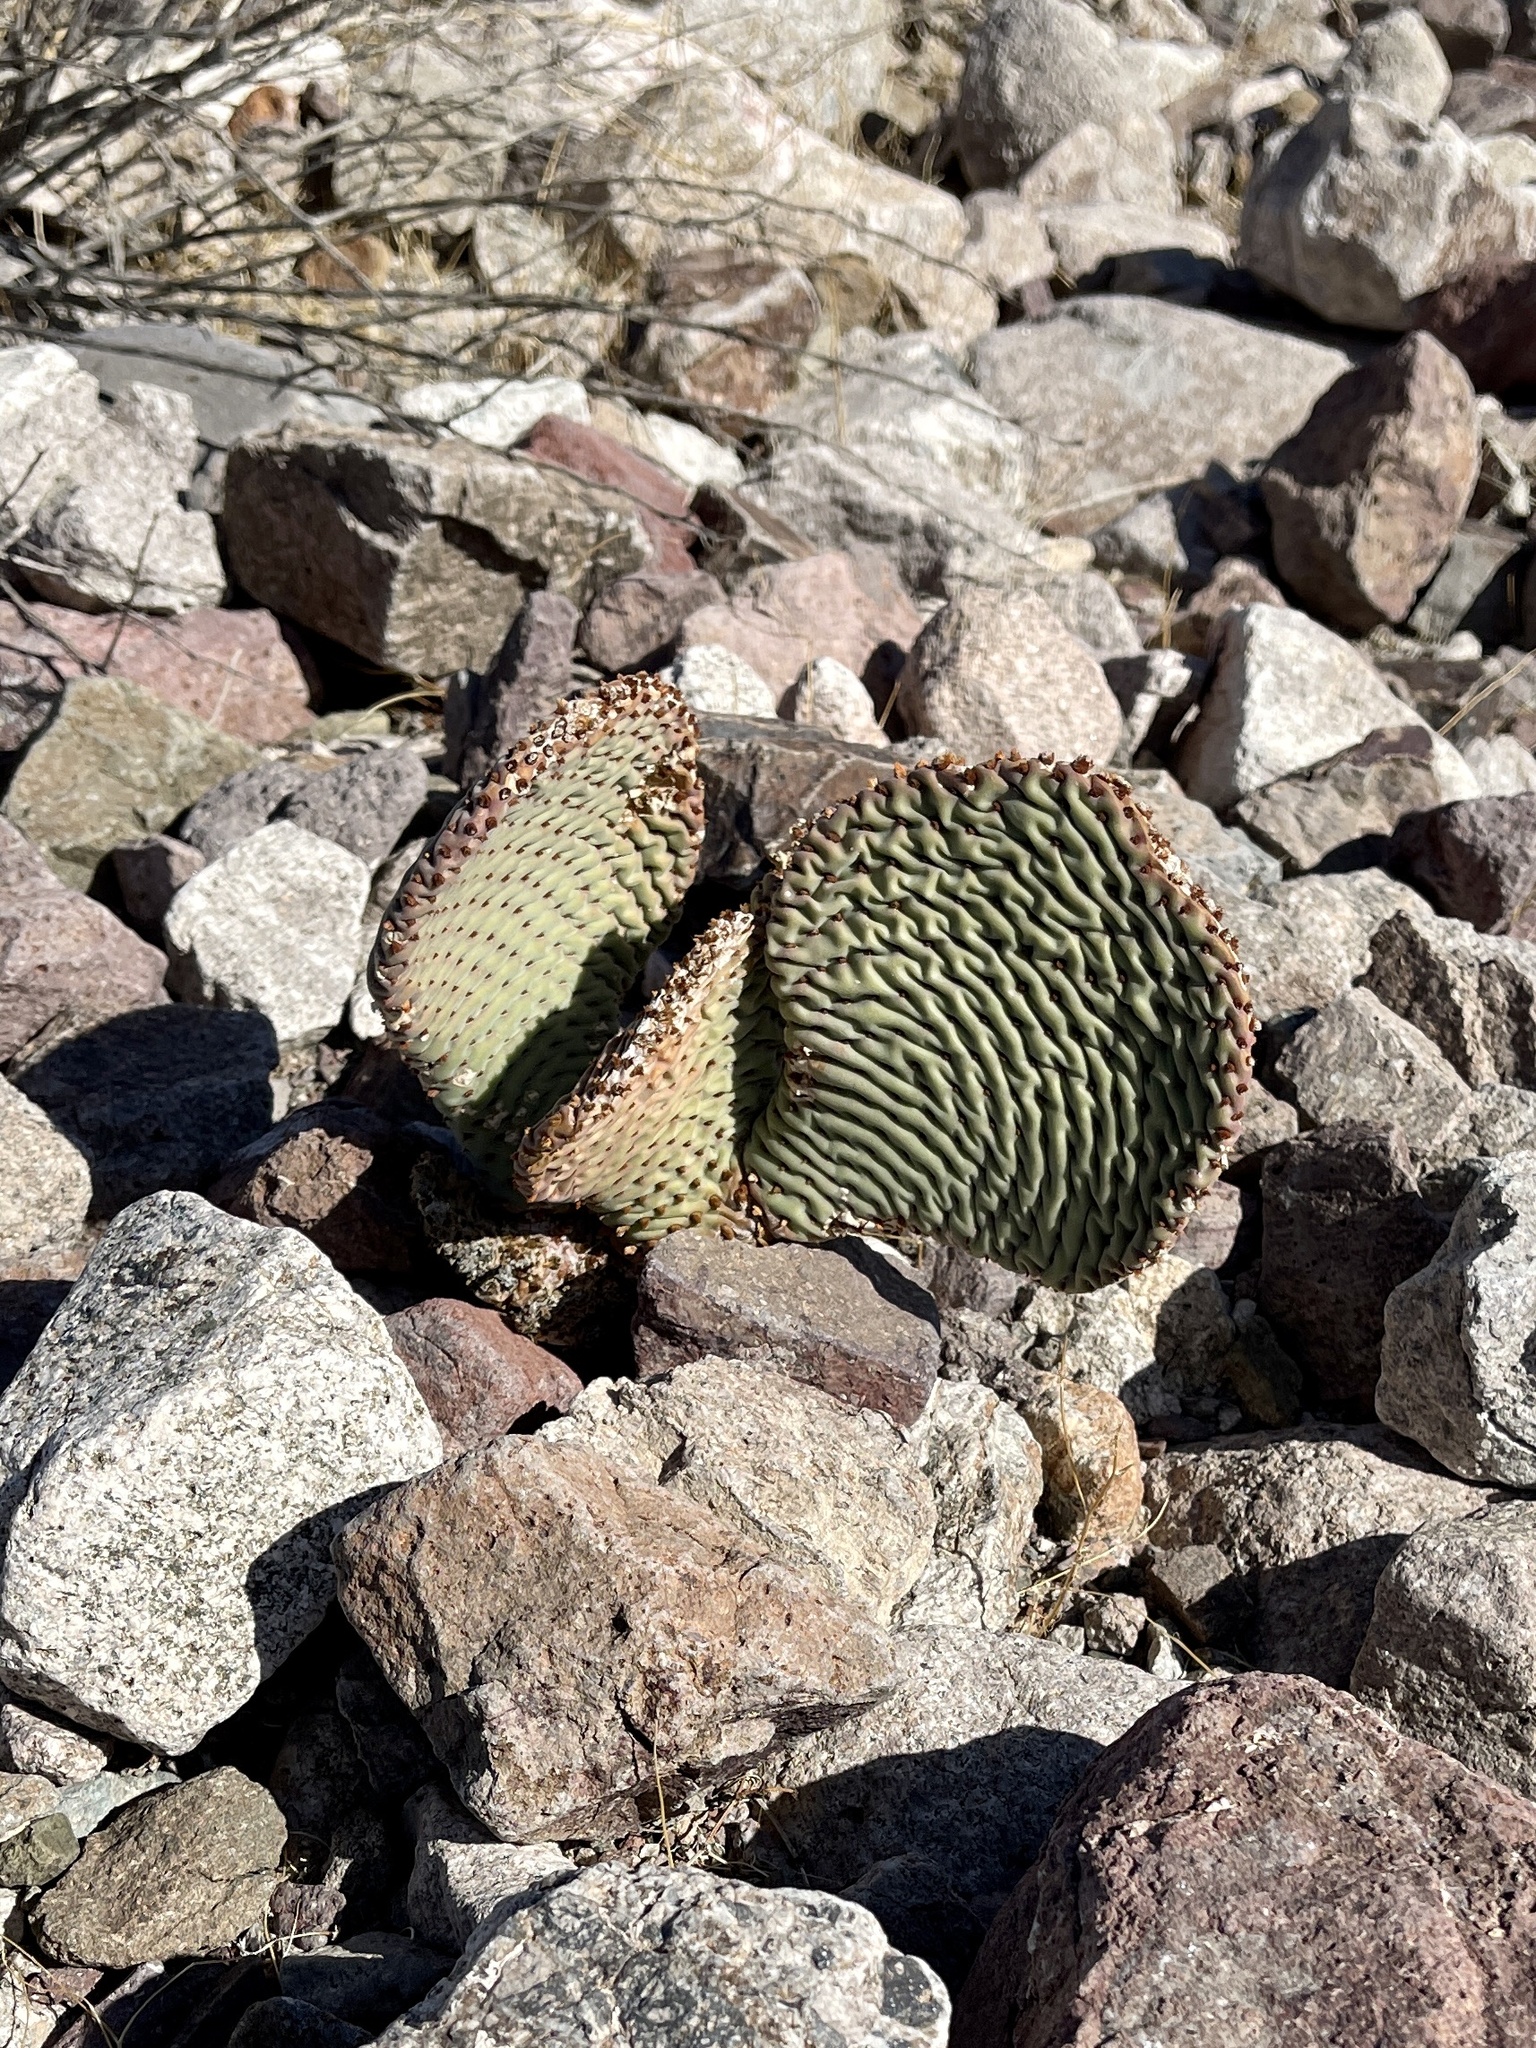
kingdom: Plantae
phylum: Tracheophyta
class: Magnoliopsida
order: Caryophyllales
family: Cactaceae
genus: Opuntia
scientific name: Opuntia basilaris
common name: Beavertail prickly-pear
